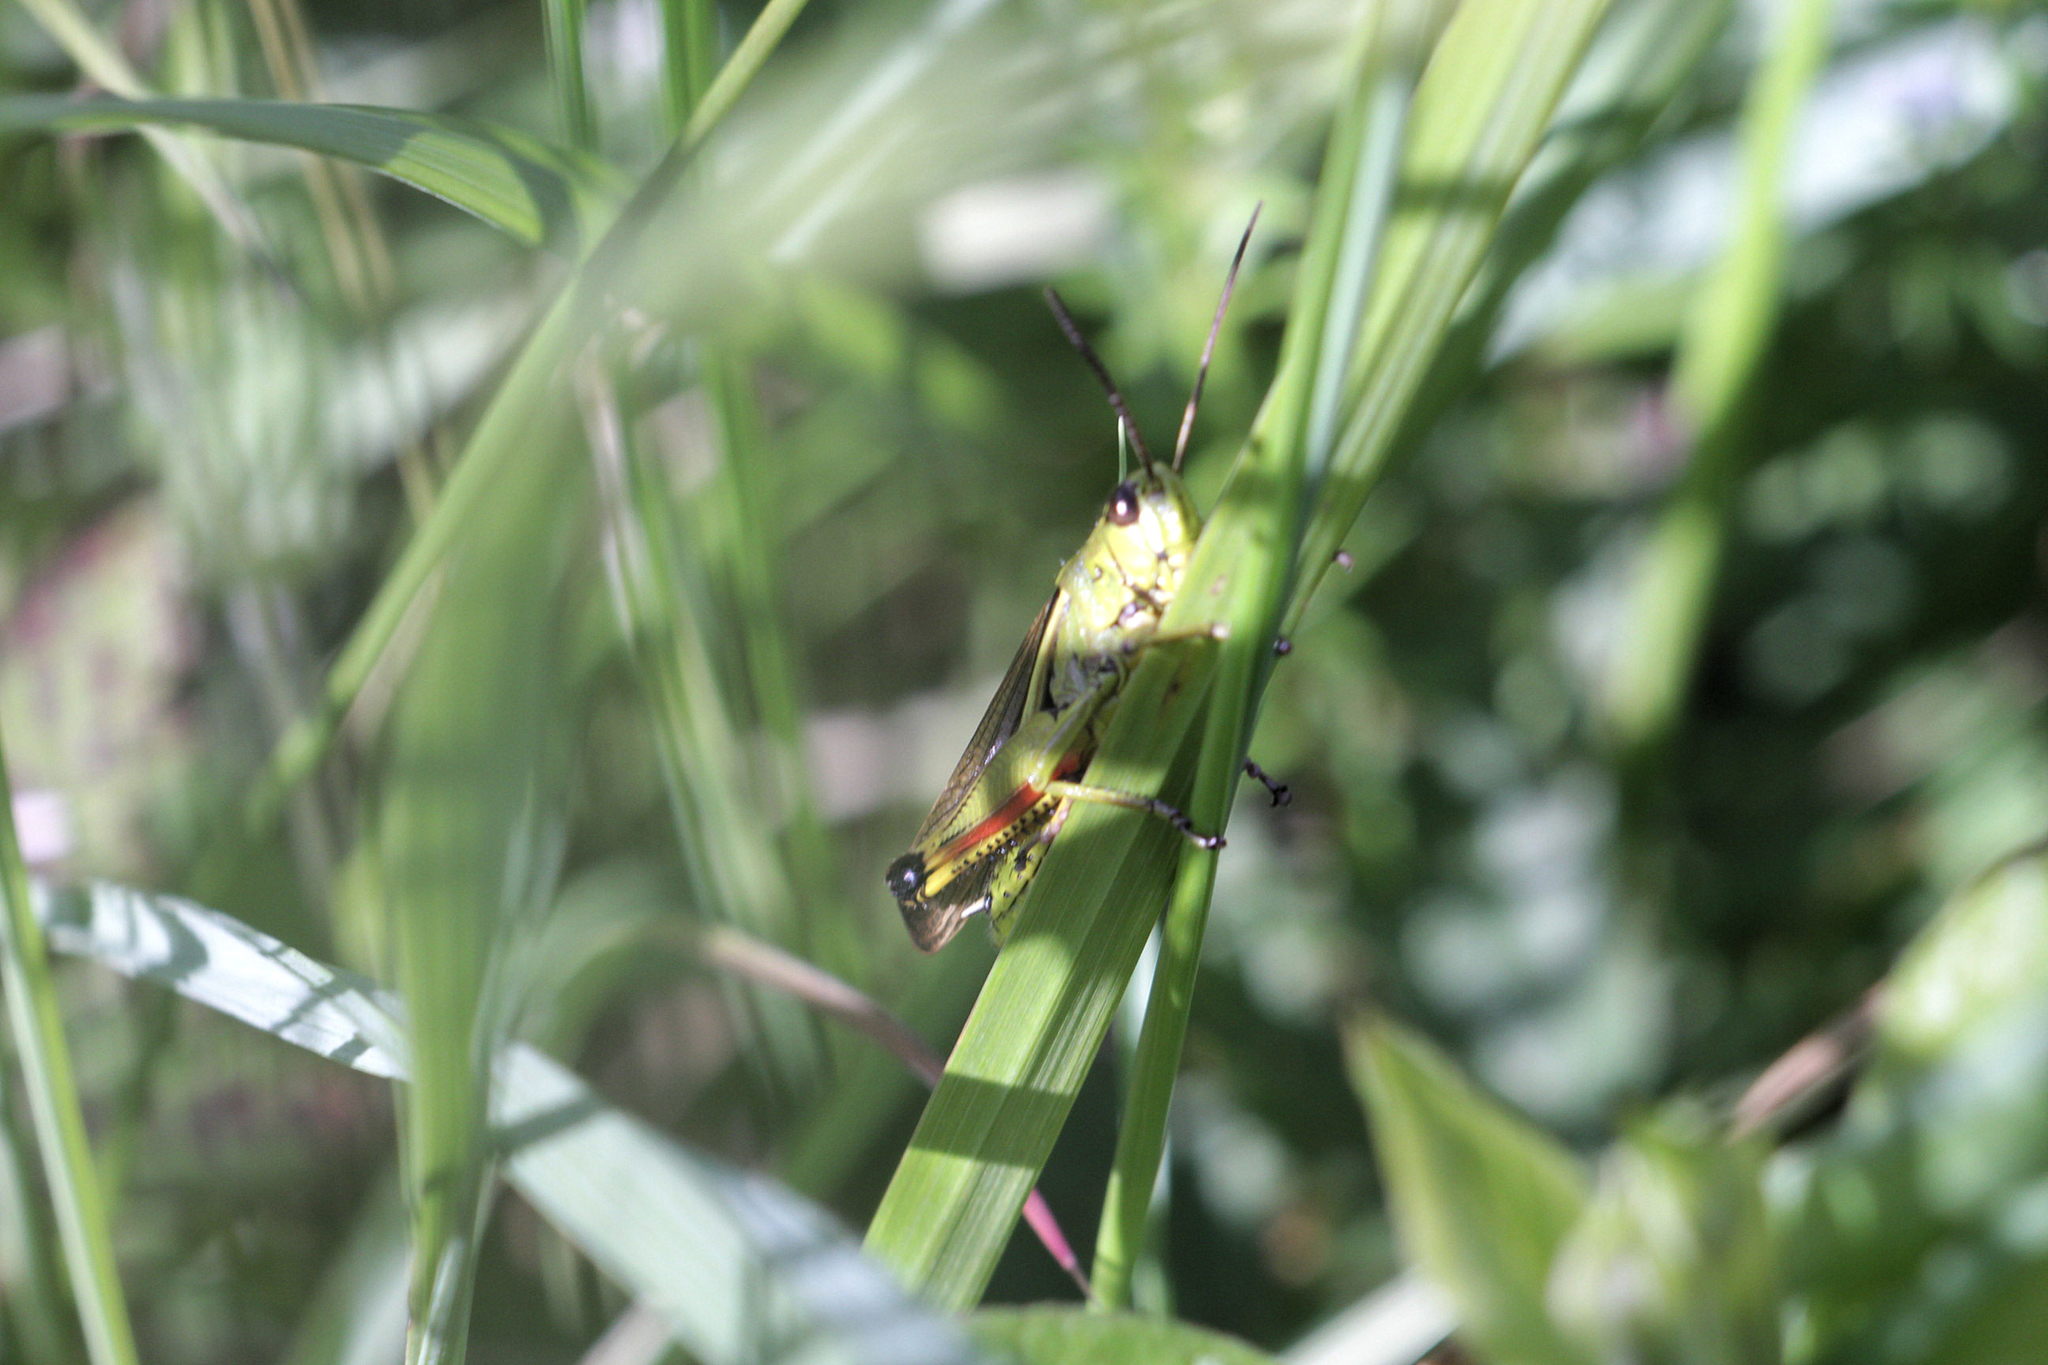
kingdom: Animalia
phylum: Arthropoda
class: Insecta
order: Orthoptera
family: Acrididae
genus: Stethophyma
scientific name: Stethophyma grossum
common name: Large marsh grasshopper
